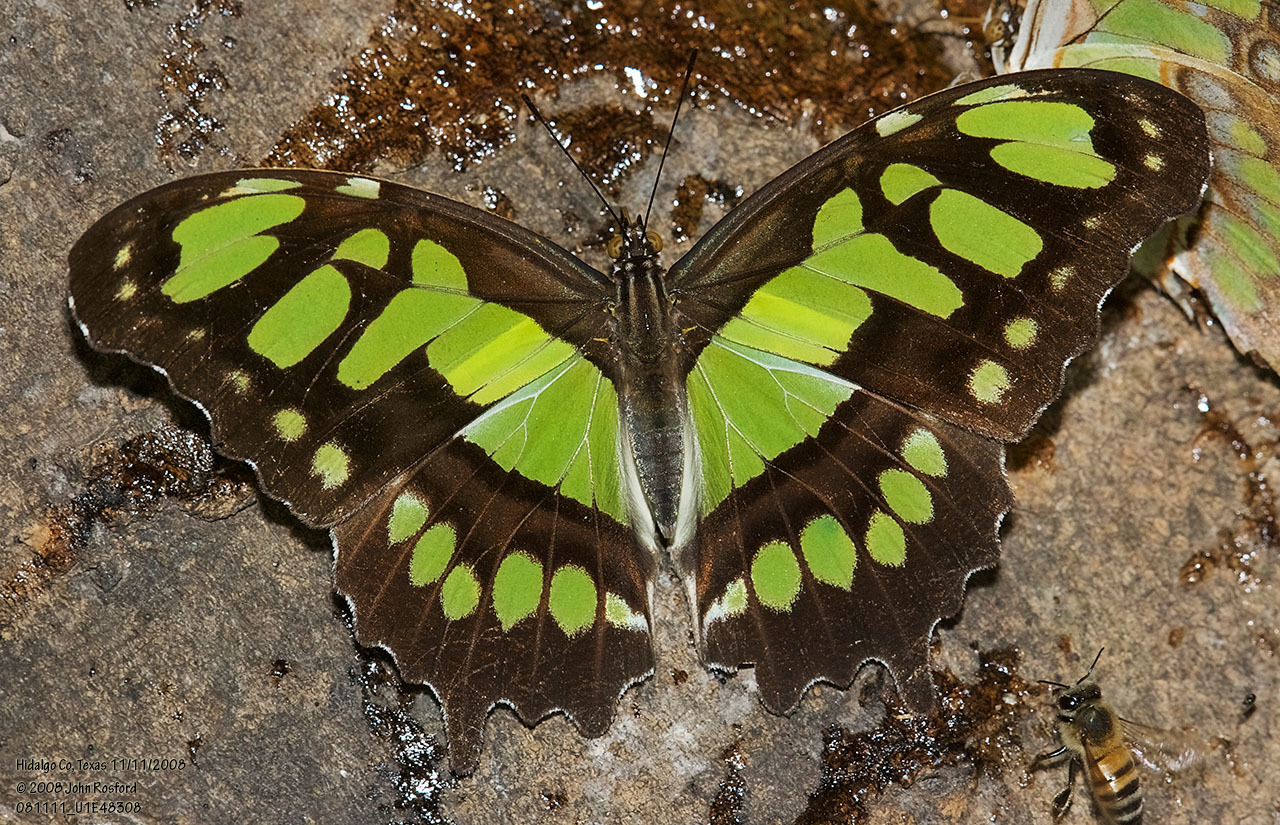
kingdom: Animalia
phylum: Arthropoda
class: Insecta
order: Lepidoptera
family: Nymphalidae
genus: Siproeta
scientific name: Siproeta stelenes
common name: Malachite
